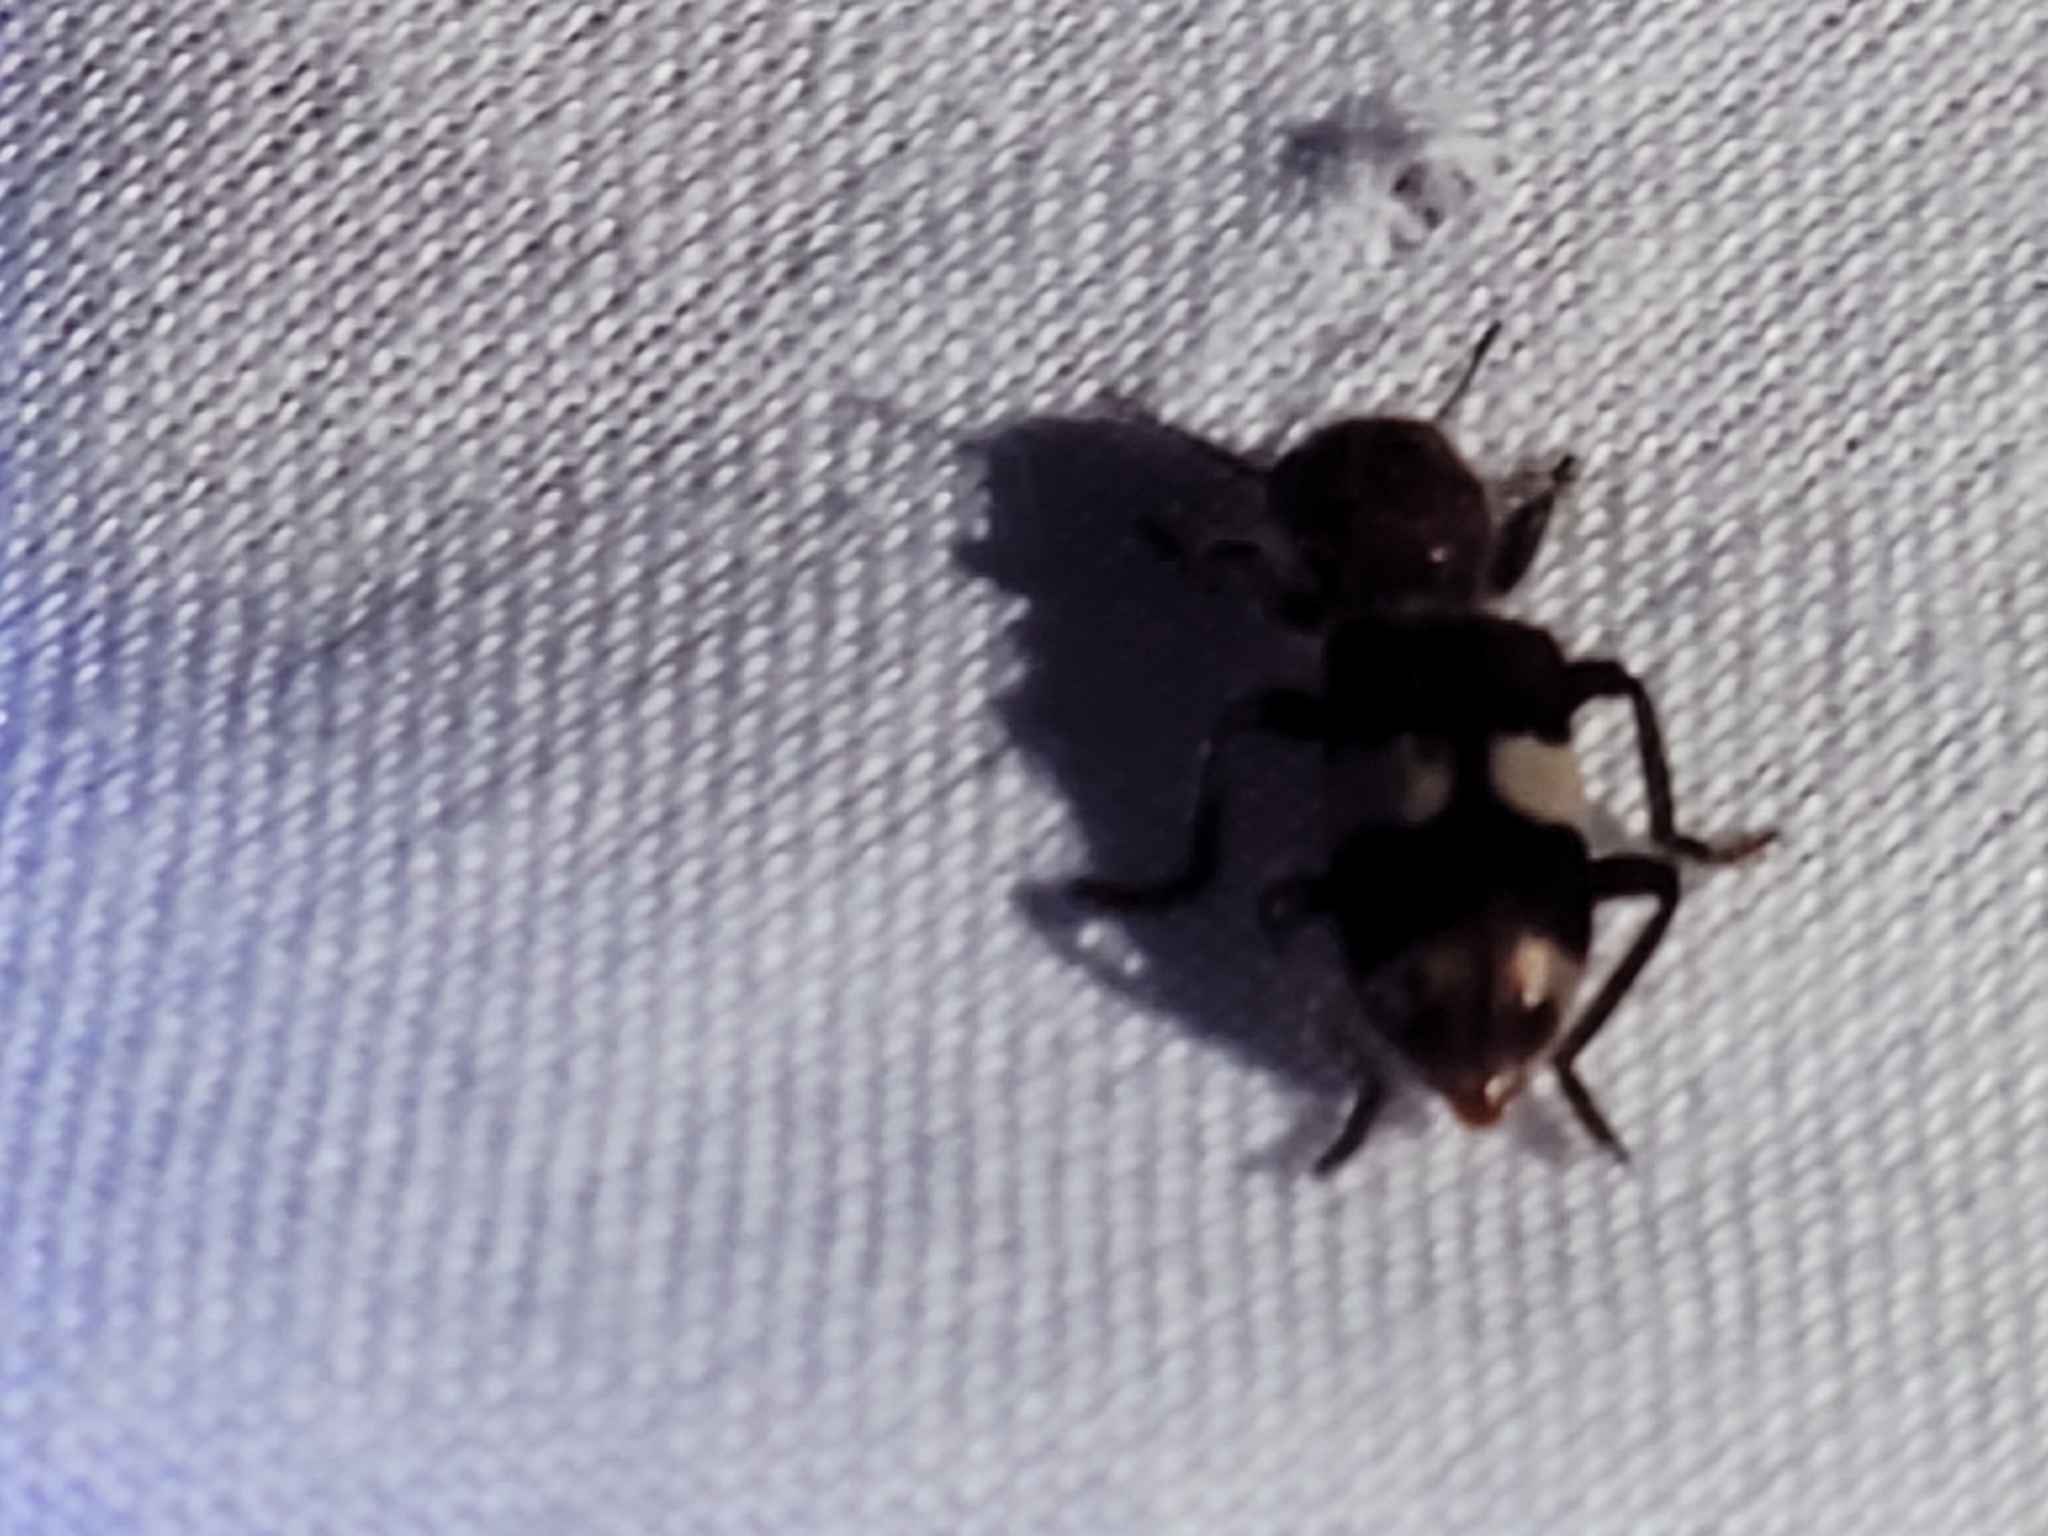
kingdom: Animalia
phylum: Arthropoda
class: Insecta
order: Coleoptera
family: Cleridae
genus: Enoclerus
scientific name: Enoclerus quadrisignatus
